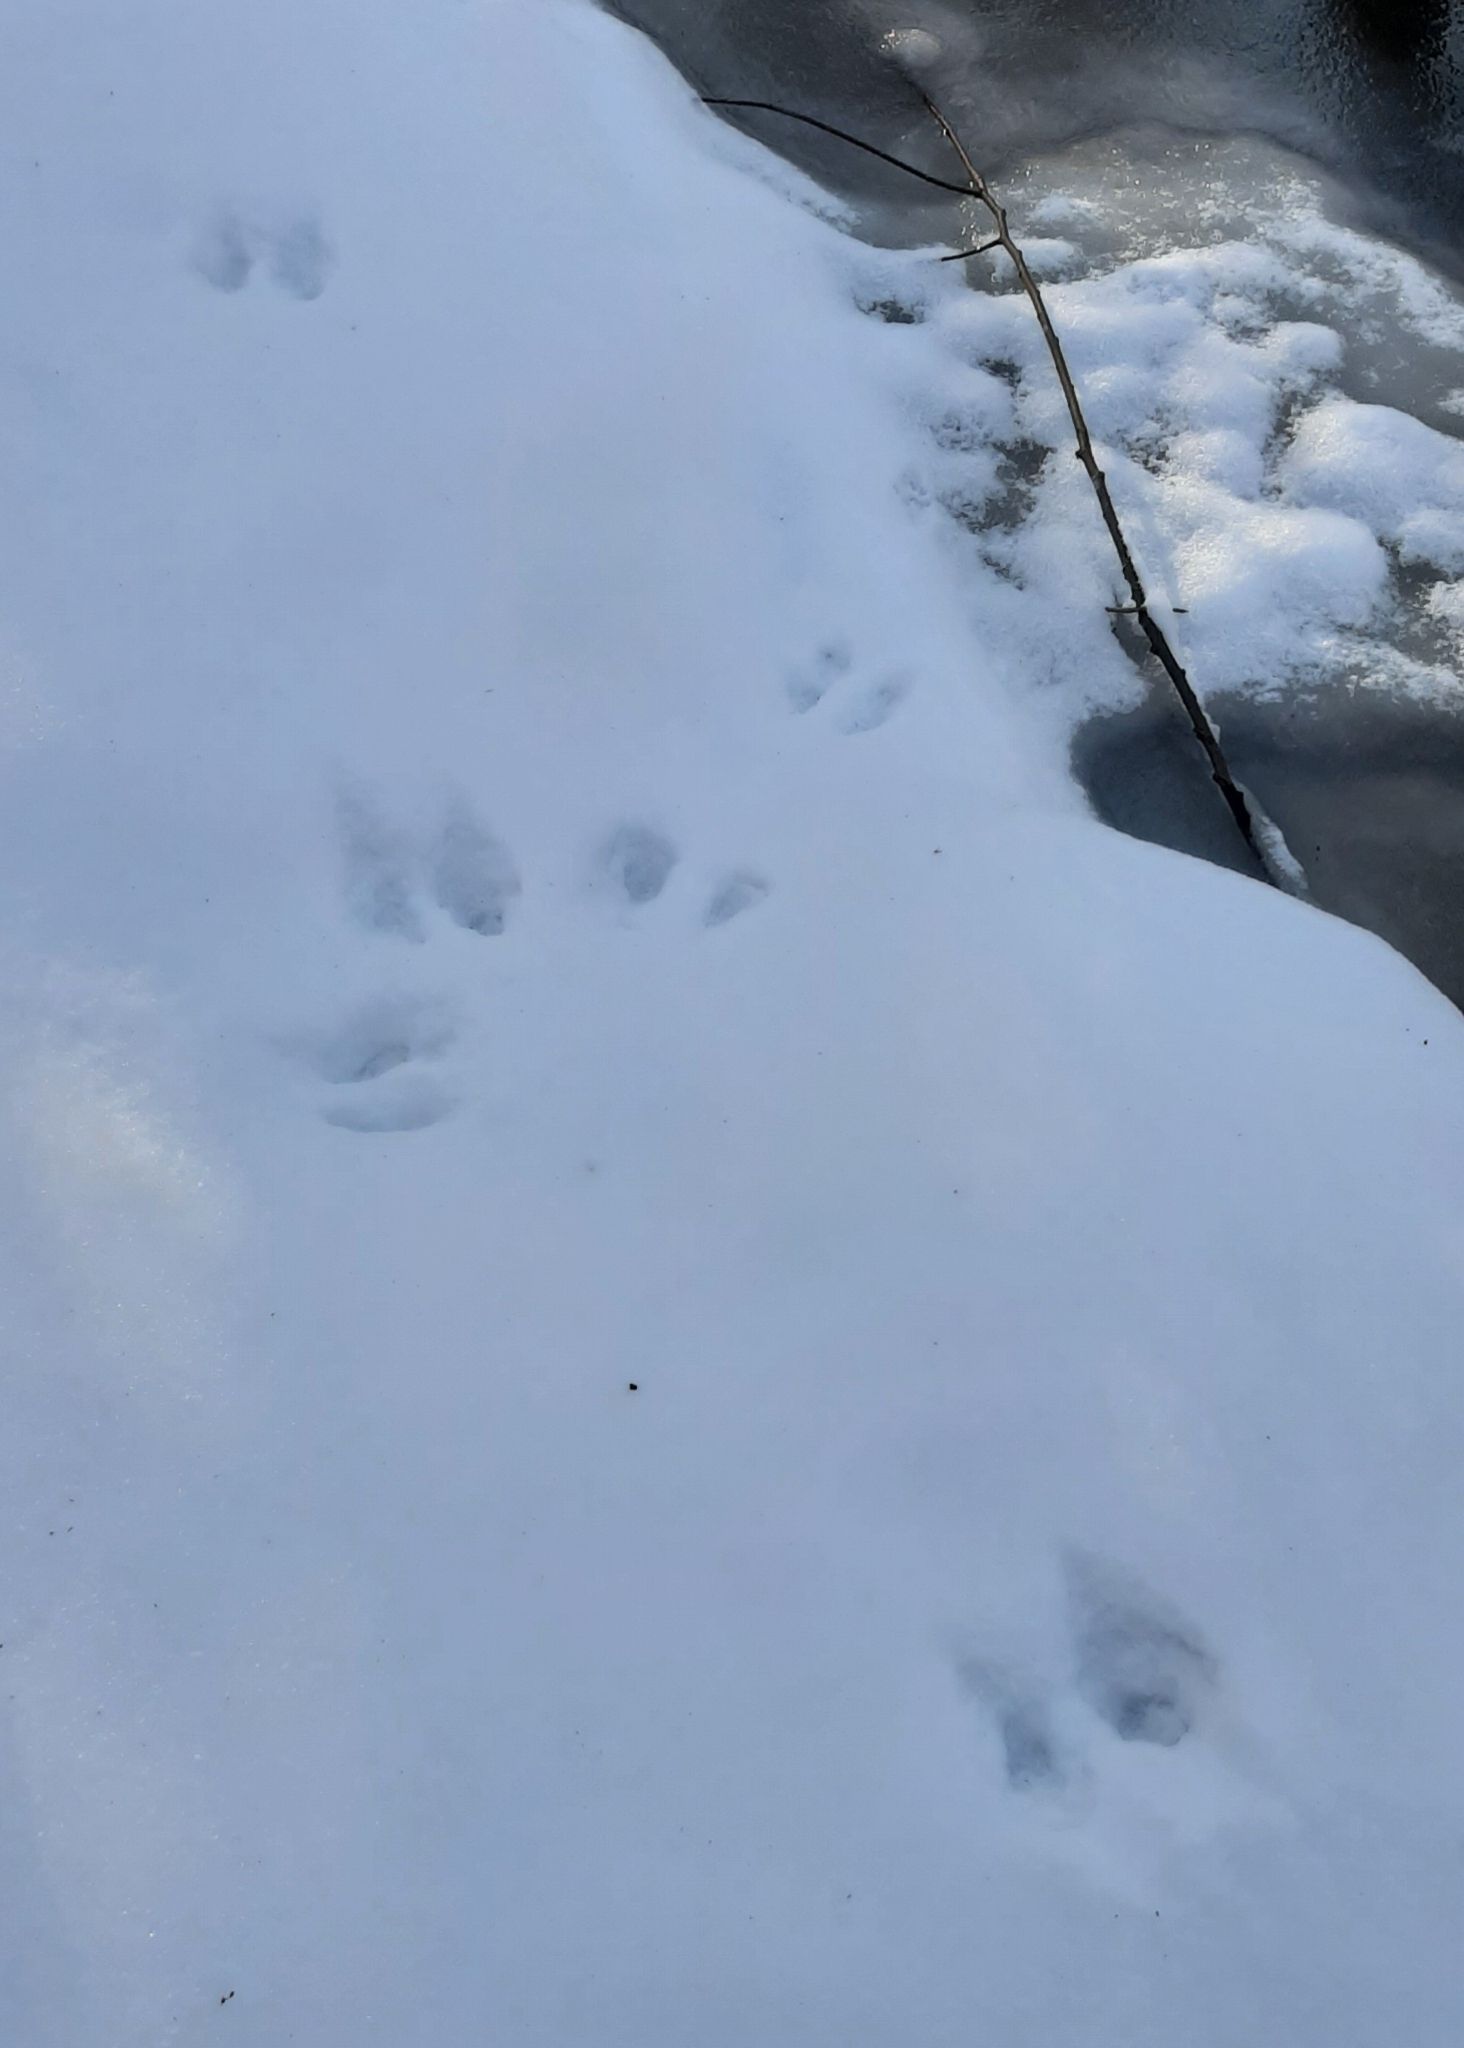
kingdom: Animalia
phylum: Chordata
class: Mammalia
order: Artiodactyla
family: Cervidae
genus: Odocoileus
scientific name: Odocoileus virginianus
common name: White-tailed deer
